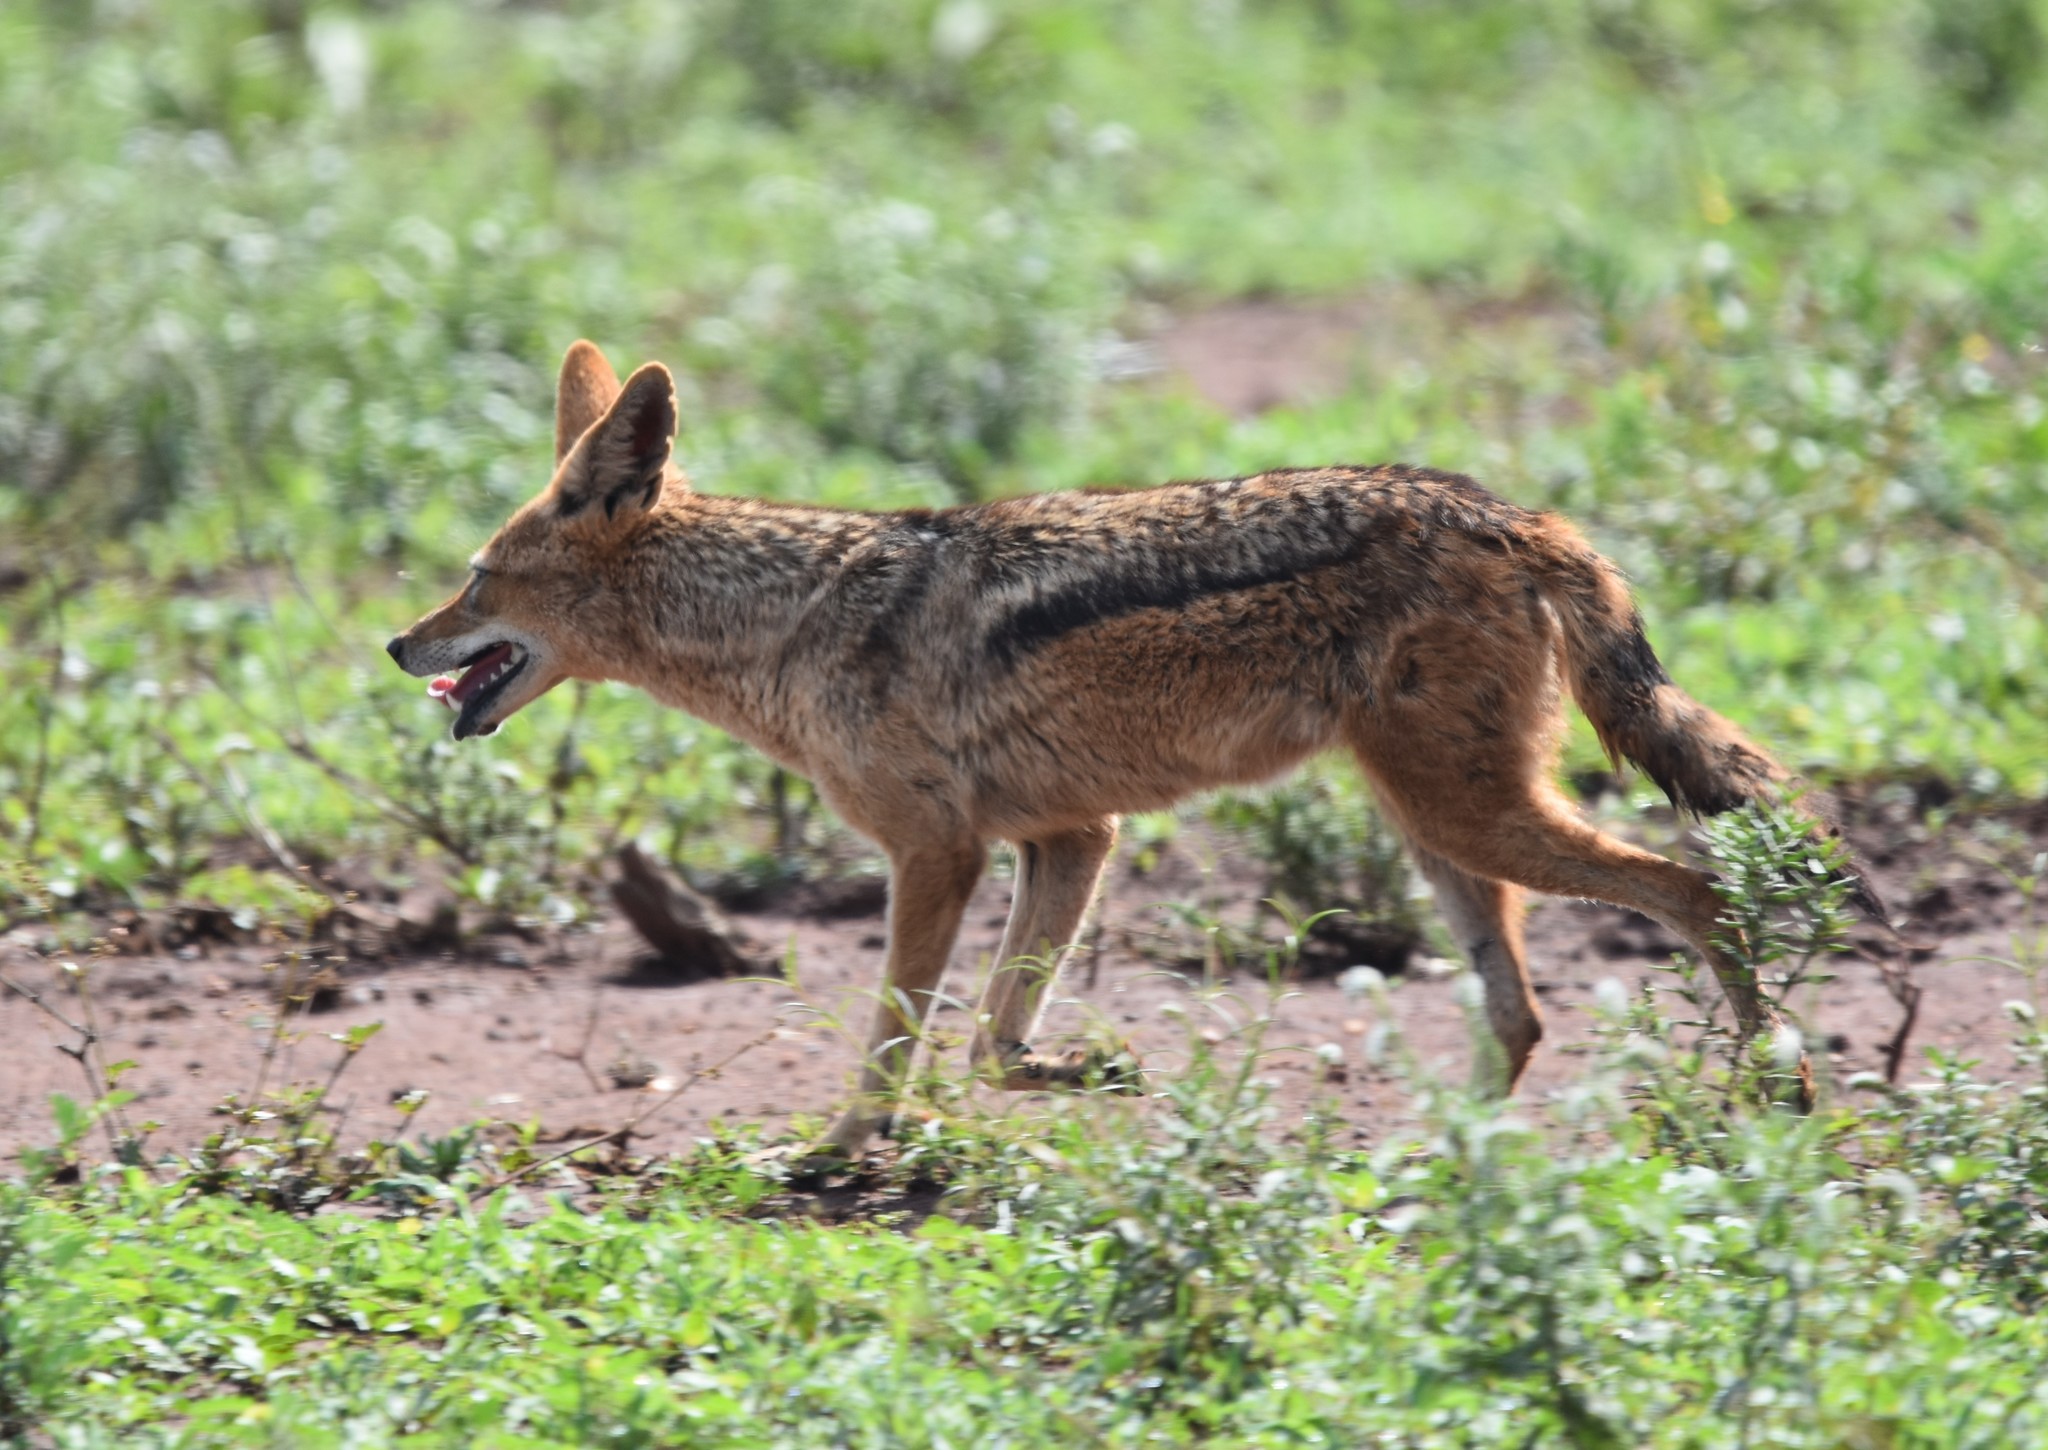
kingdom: Animalia
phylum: Chordata
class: Mammalia
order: Carnivora
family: Canidae
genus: Lupulella
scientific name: Lupulella
